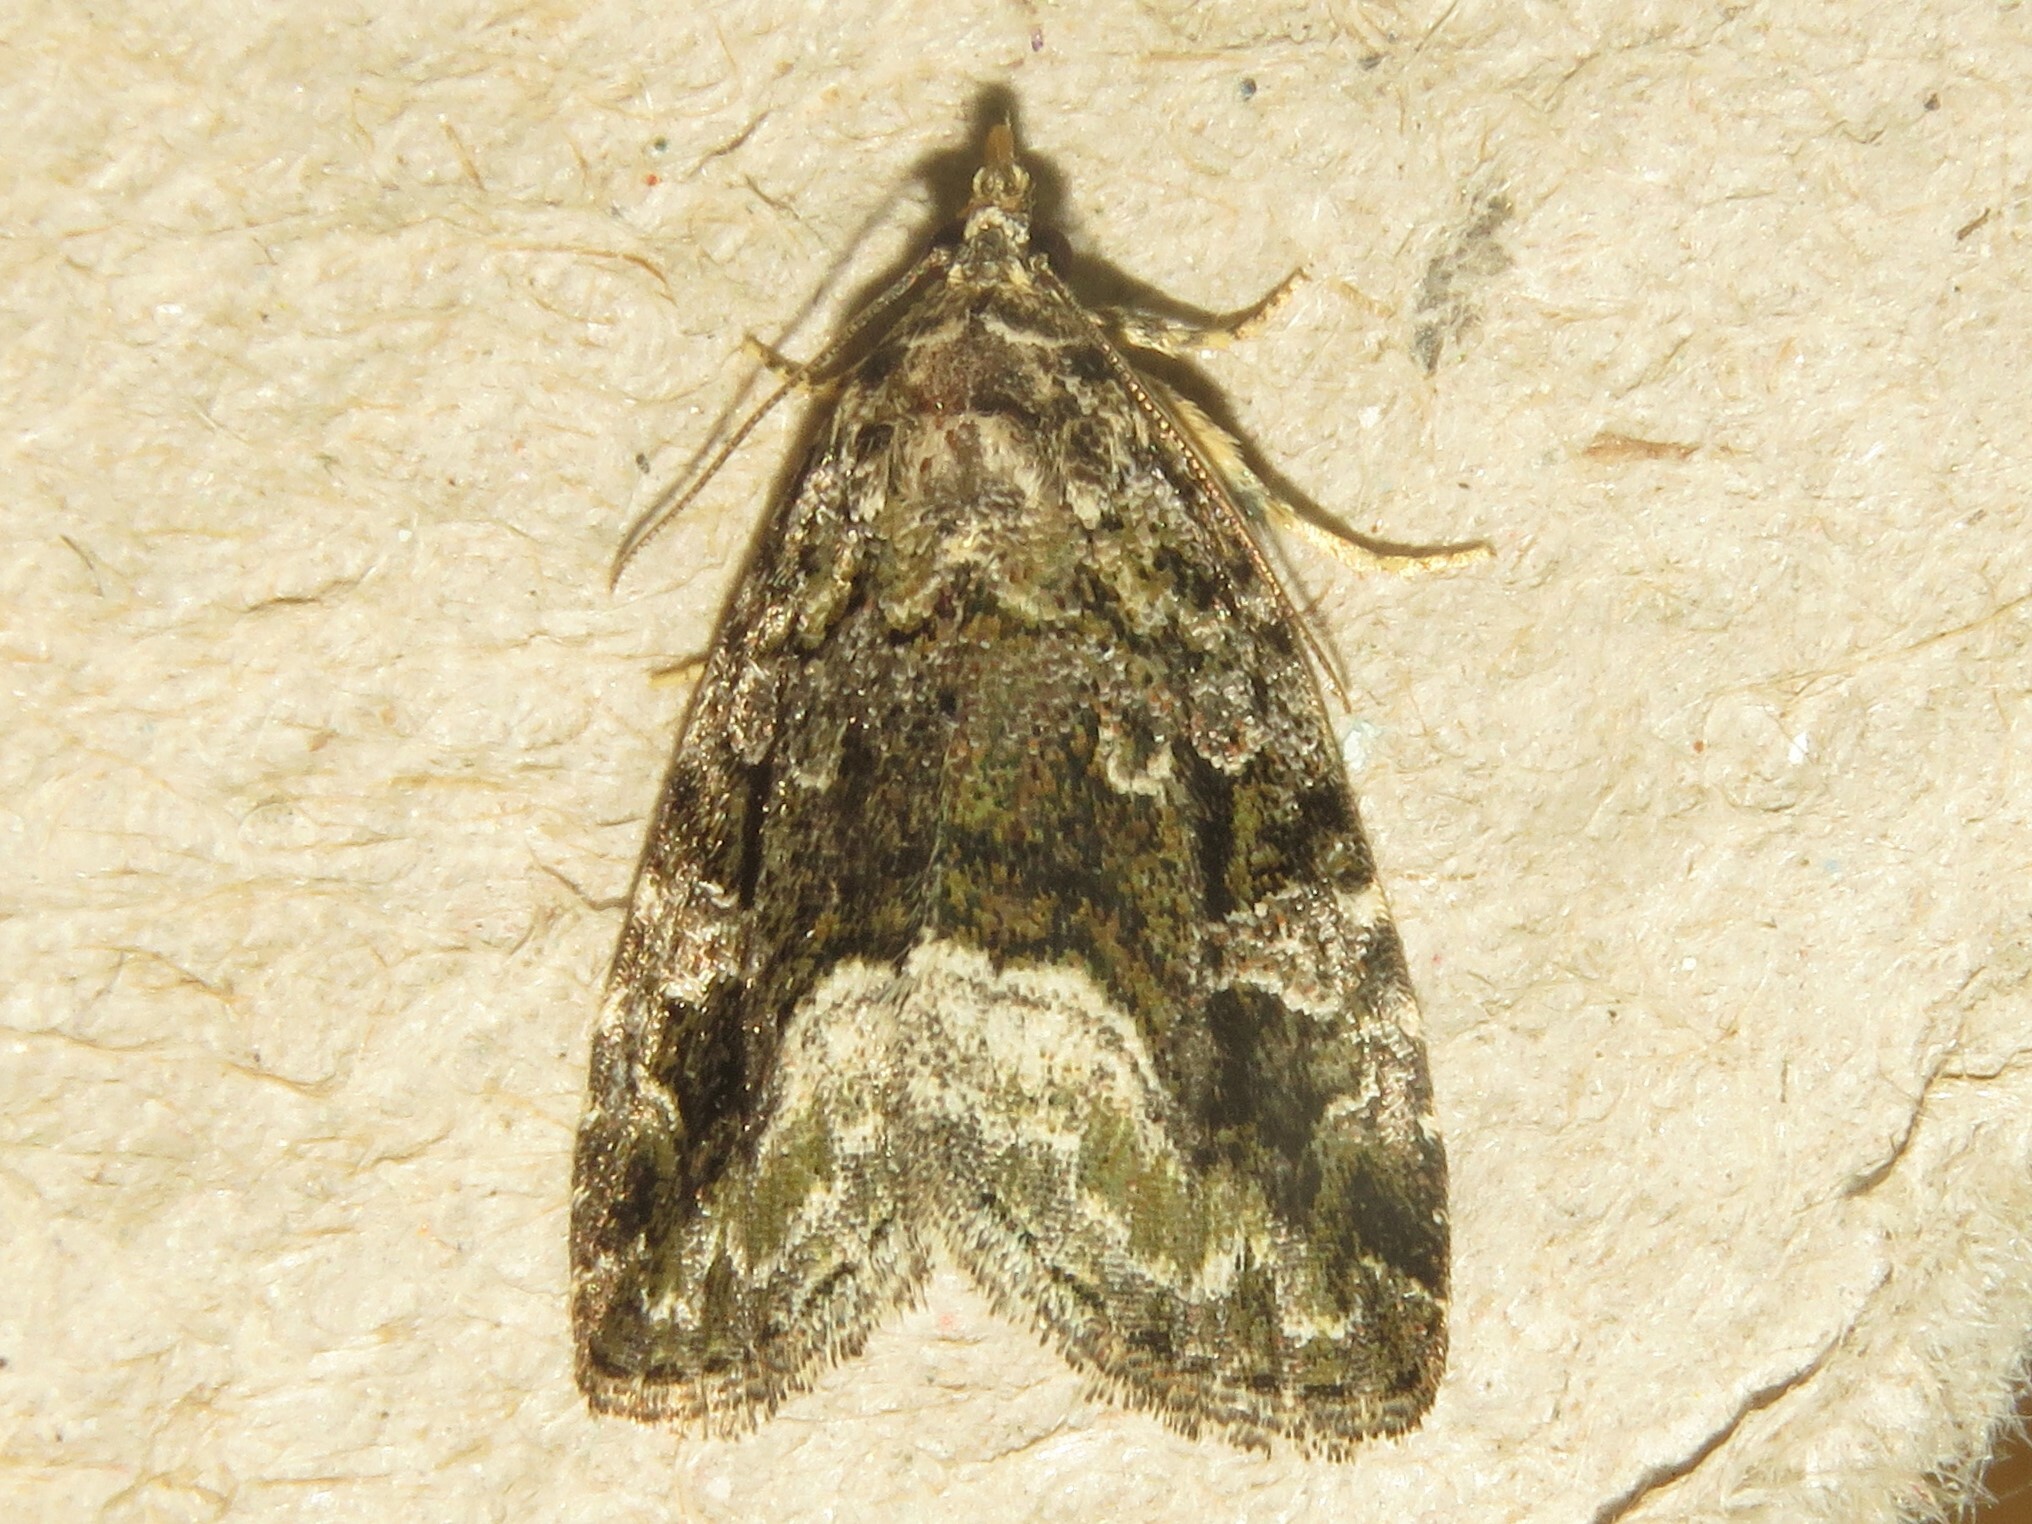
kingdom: Animalia
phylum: Arthropoda
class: Insecta
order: Lepidoptera
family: Noctuidae
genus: Protodeltote
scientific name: Protodeltote muscosula
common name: Large mossy glyph
